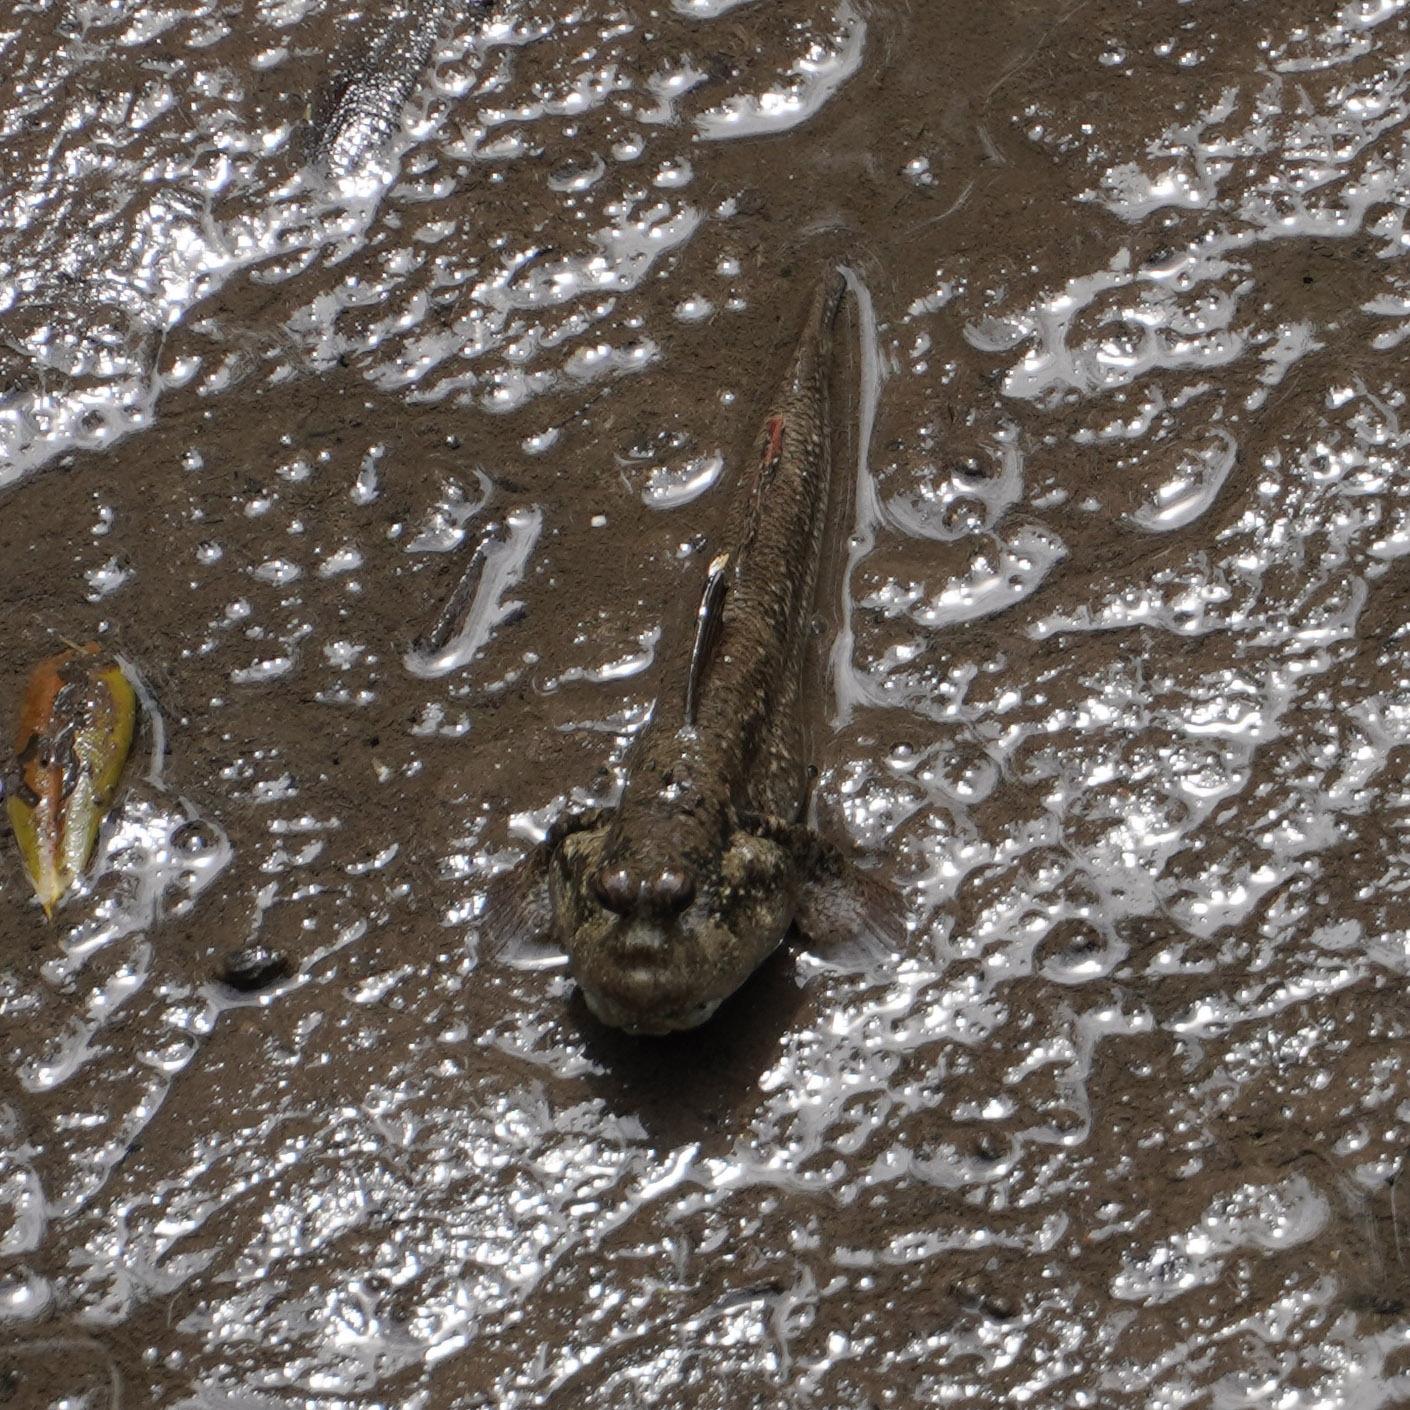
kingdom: Animalia
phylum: Chordata
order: Perciformes
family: Gobiidae
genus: Periophthalmus
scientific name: Periophthalmus walailakae
